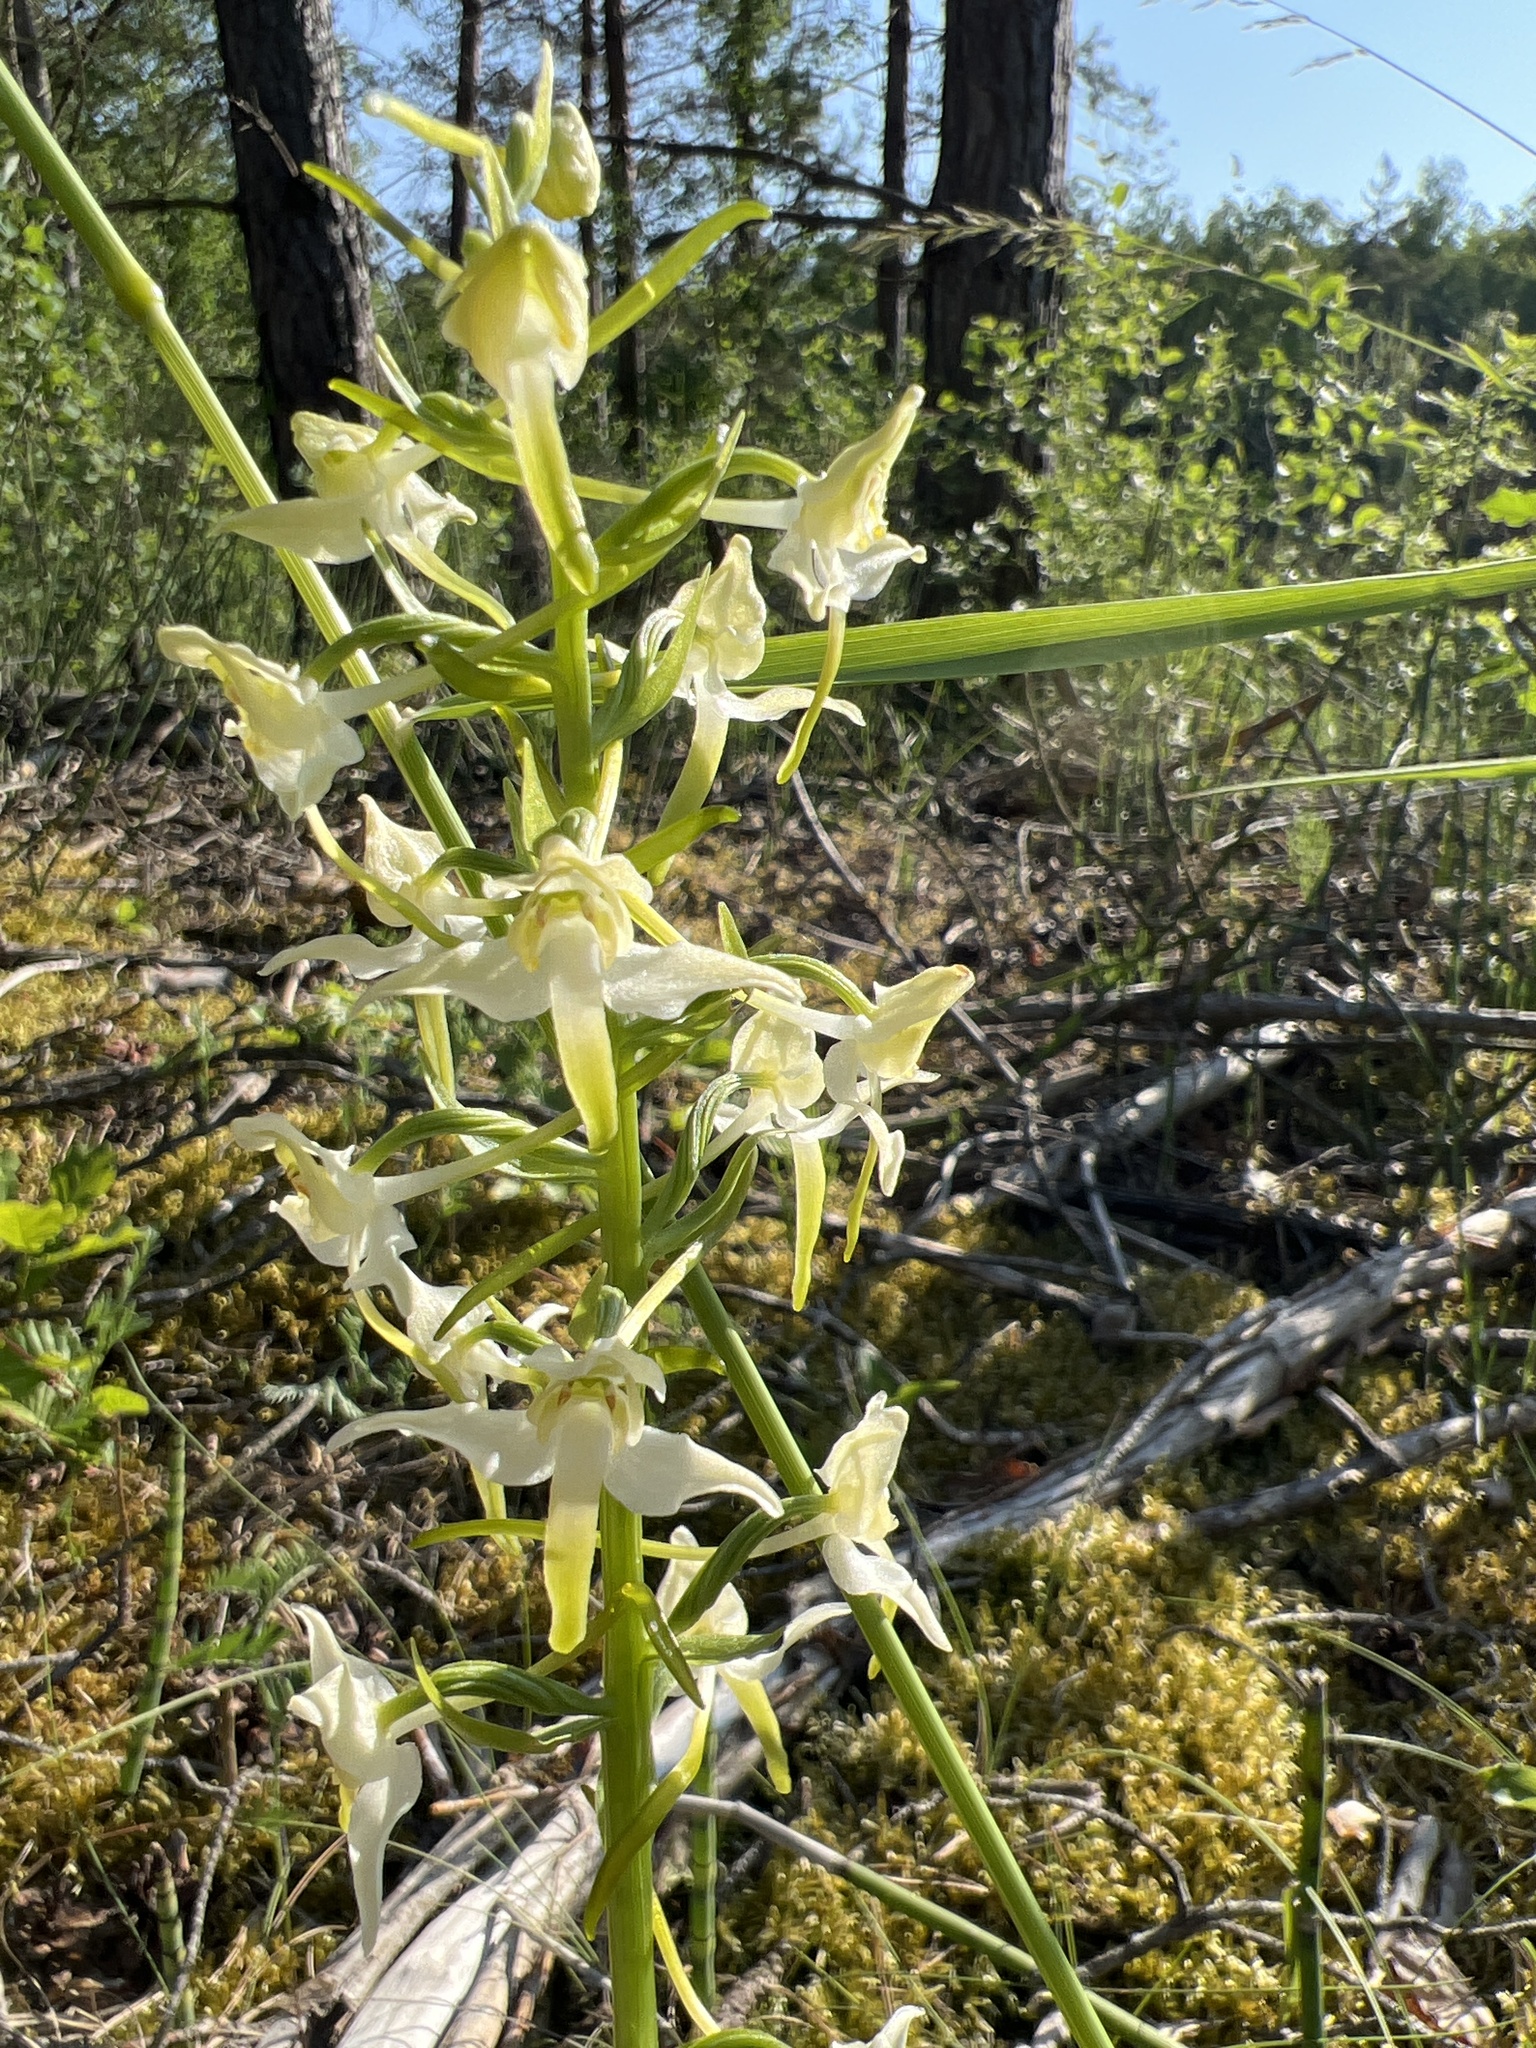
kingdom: Plantae
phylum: Tracheophyta
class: Liliopsida
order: Asparagales
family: Orchidaceae
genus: Platanthera
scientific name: Platanthera chlorantha
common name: Greater butterfly-orchid
